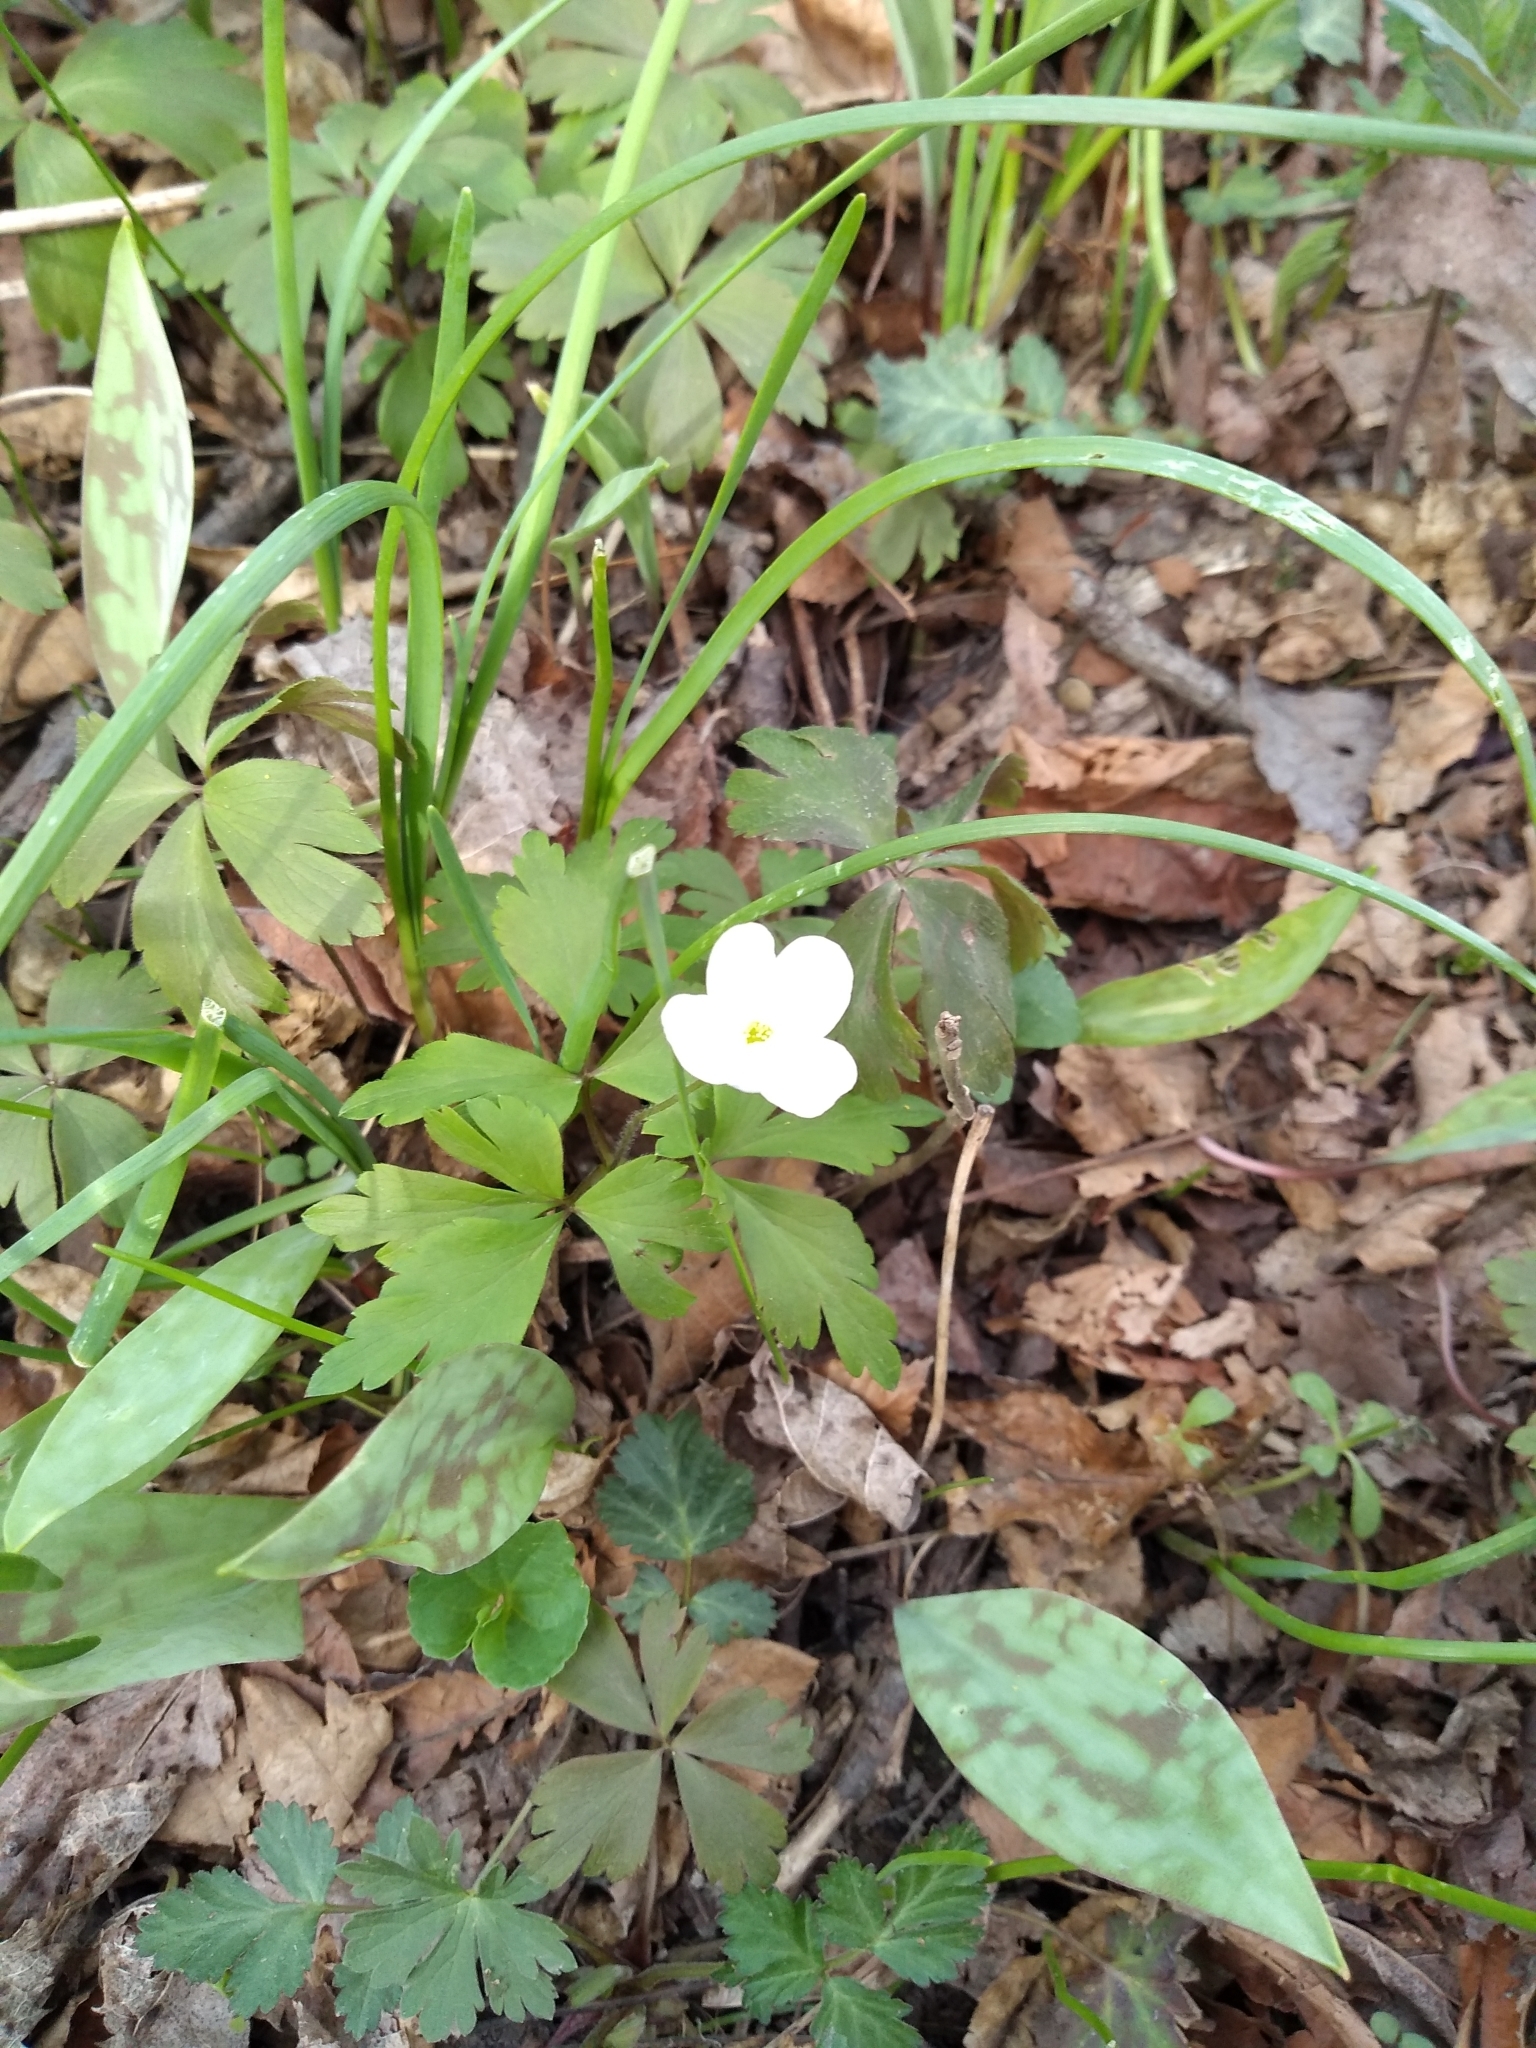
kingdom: Plantae
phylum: Tracheophyta
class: Magnoliopsida
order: Ranunculales
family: Ranunculaceae
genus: Anemone
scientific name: Anemone quinquefolia
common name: Wood anemone
